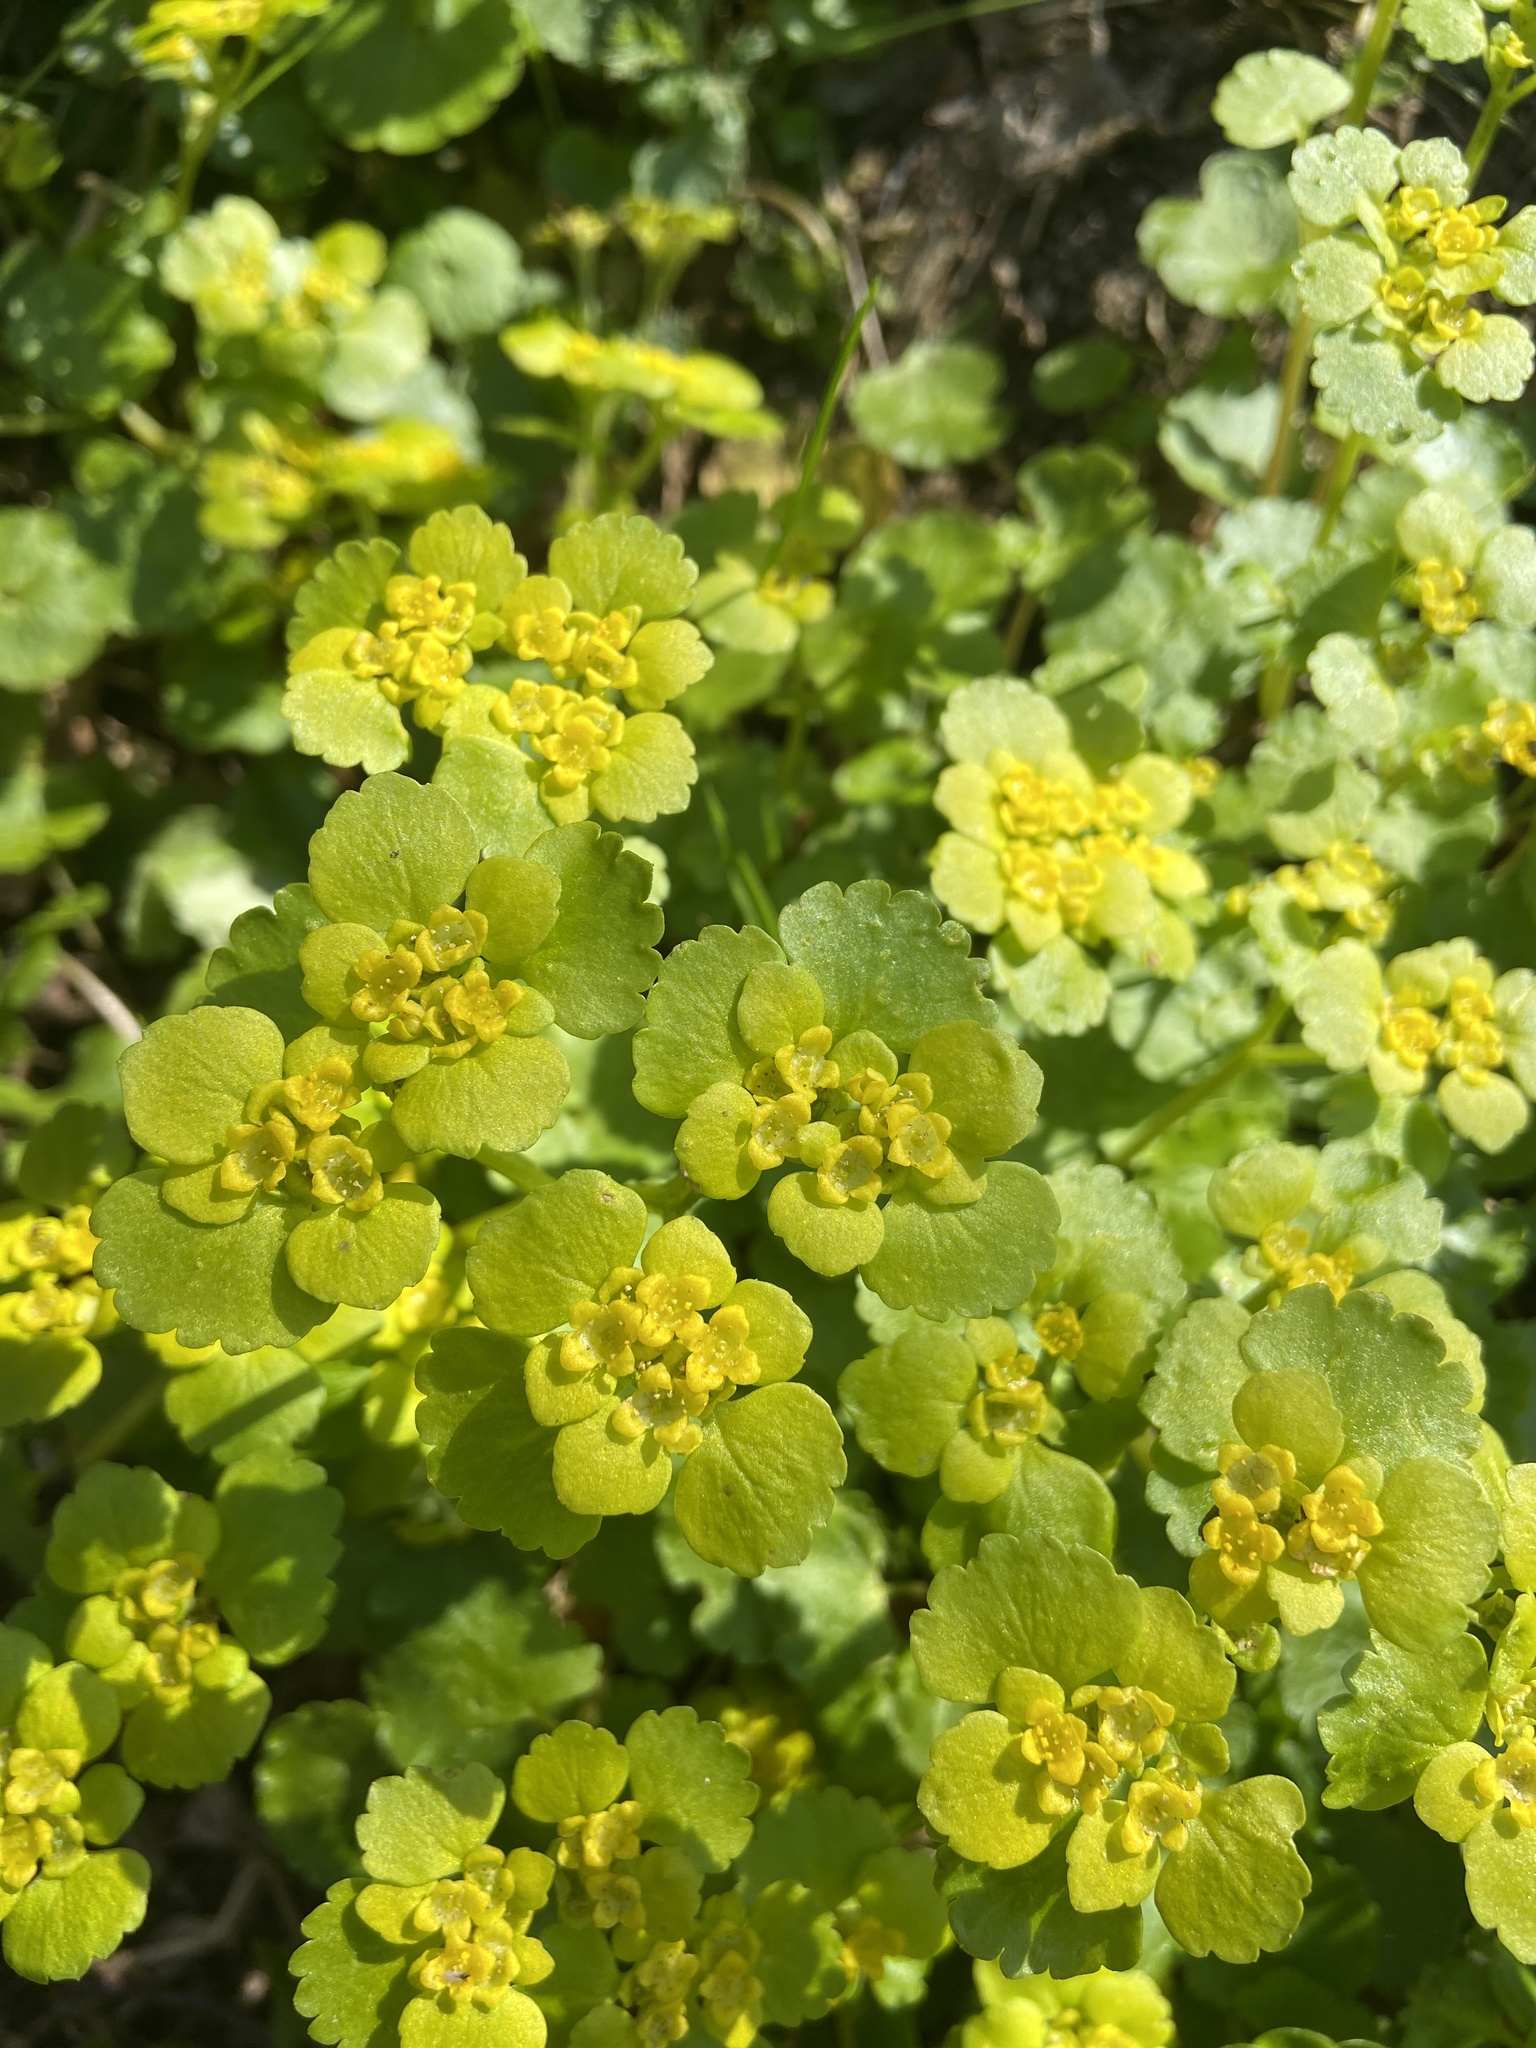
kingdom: Plantae
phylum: Tracheophyta
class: Magnoliopsida
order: Saxifragales
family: Saxifragaceae
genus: Chrysosplenium
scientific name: Chrysosplenium alternifolium
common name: Alternate-leaved golden-saxifrage
